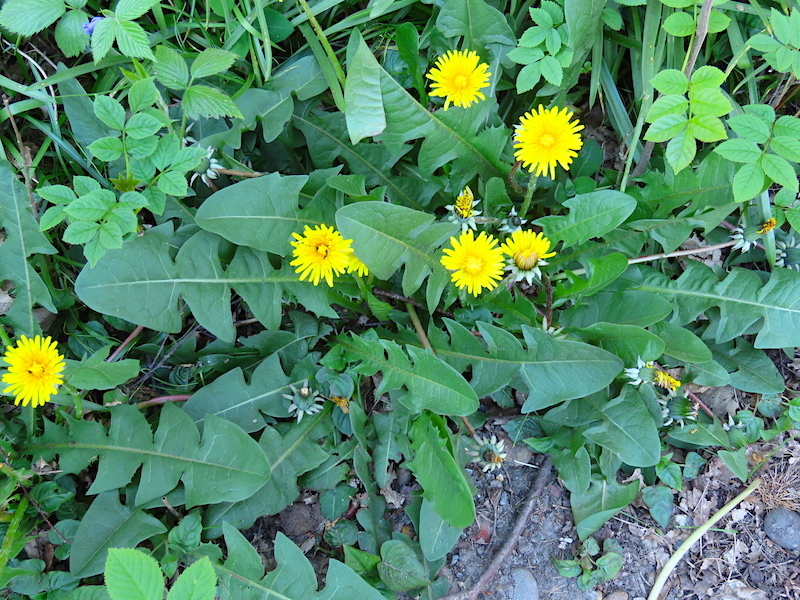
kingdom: Plantae
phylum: Tracheophyta
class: Magnoliopsida
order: Asterales
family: Asteraceae
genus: Taraxacum
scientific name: Taraxacum officinale
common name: Common dandelion
